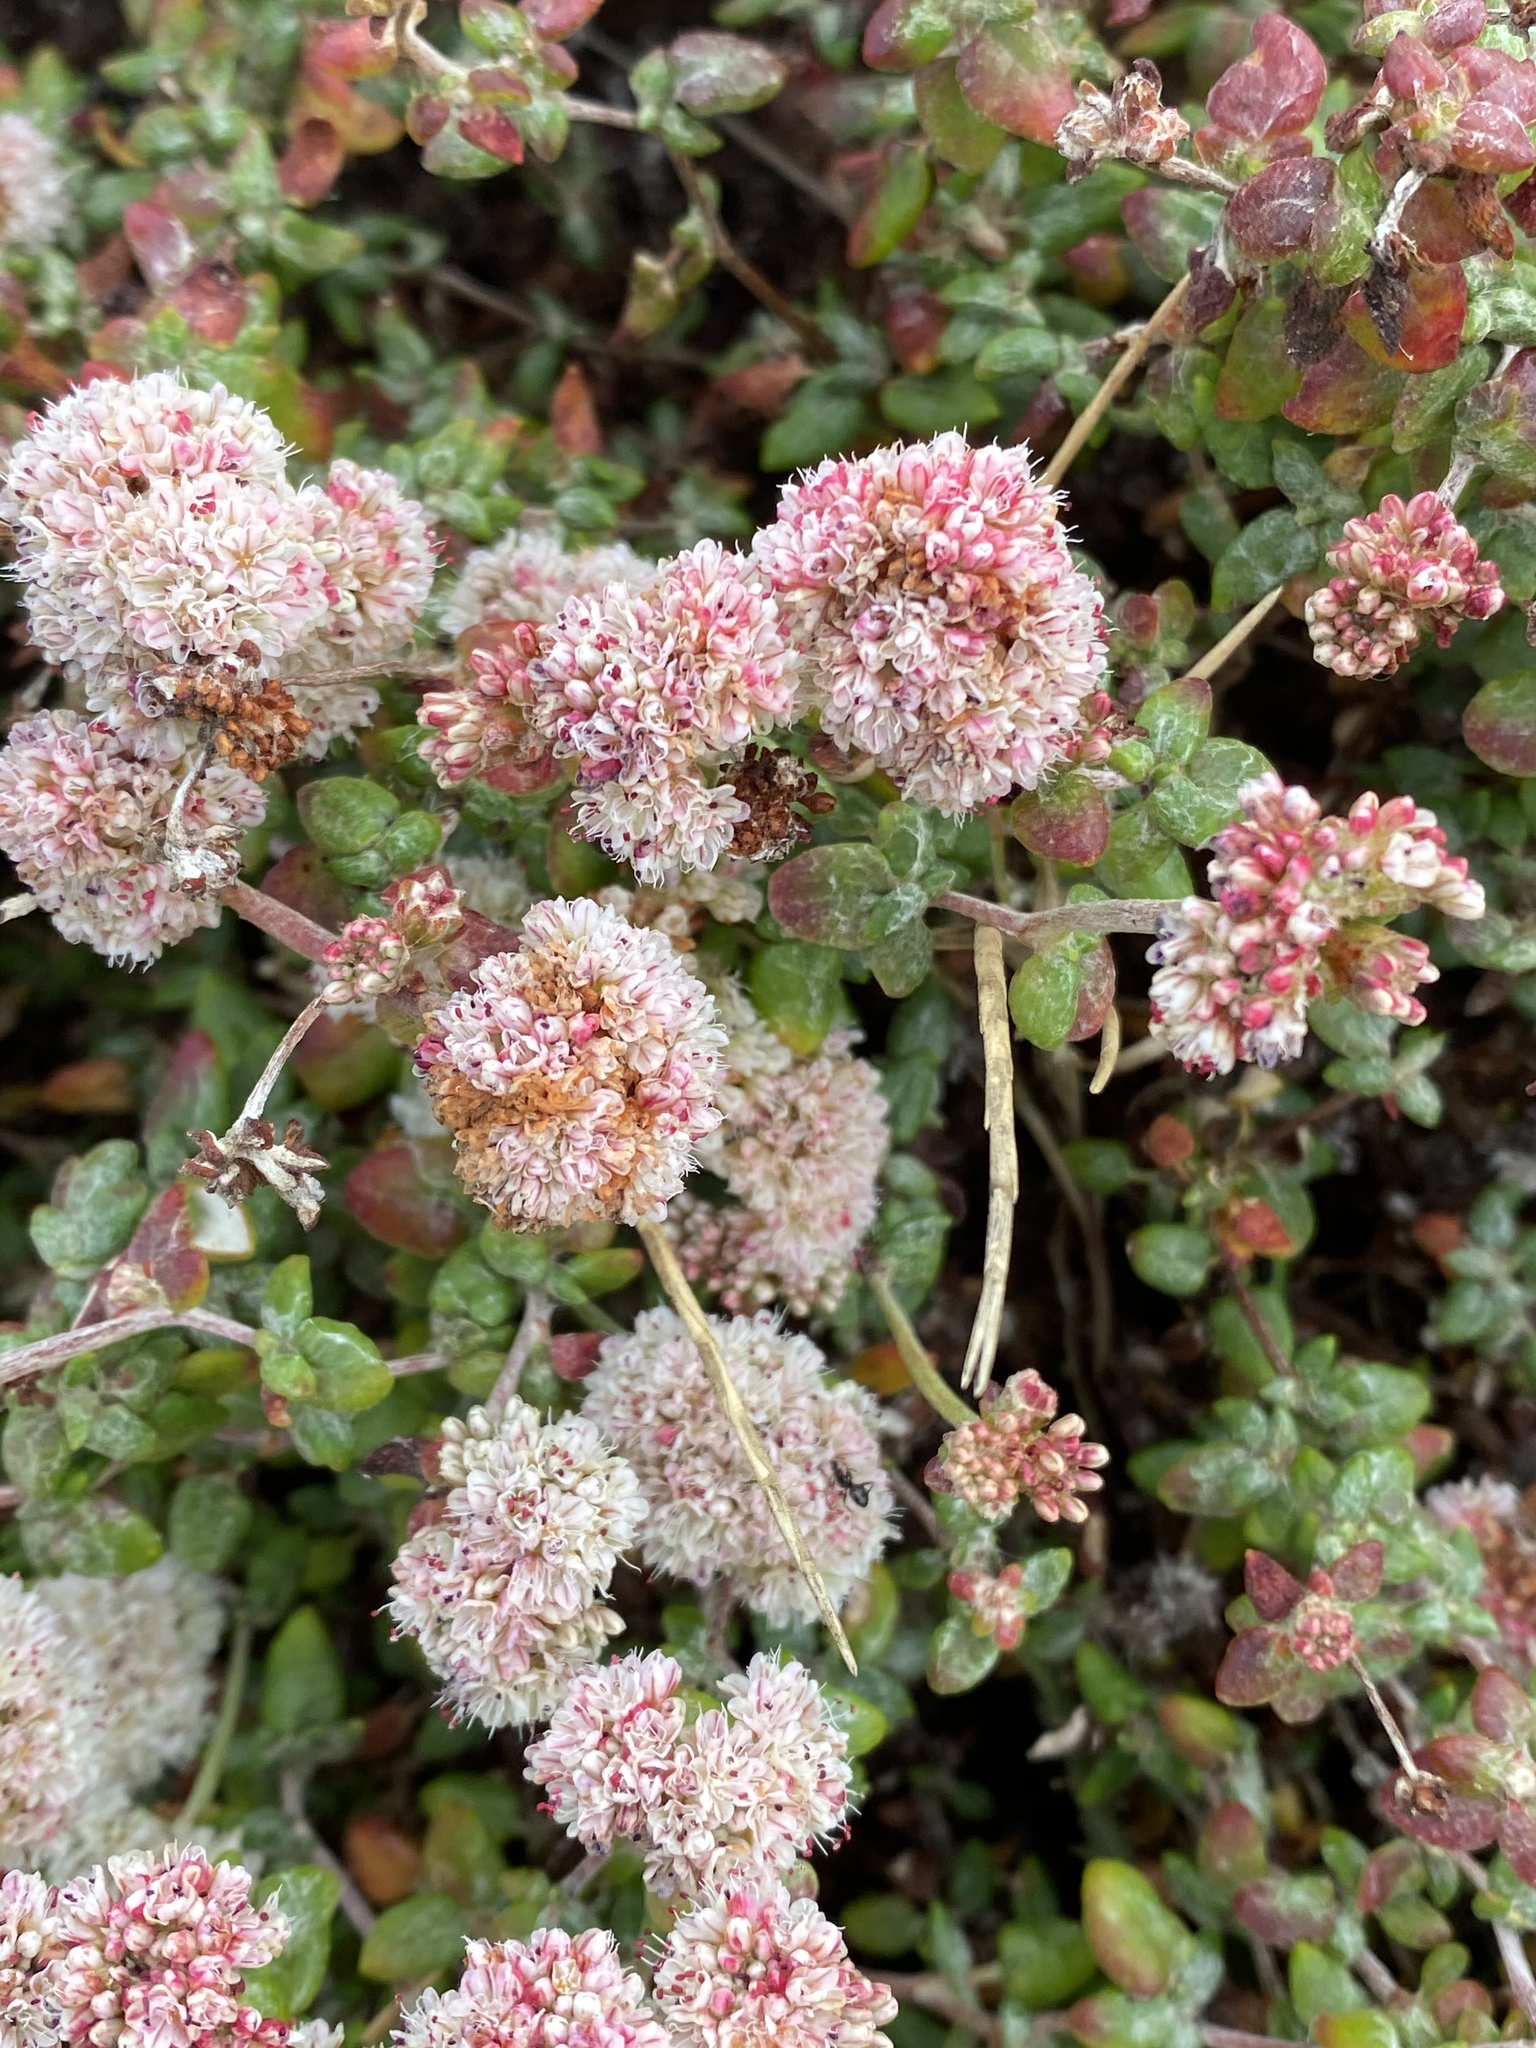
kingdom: Plantae
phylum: Tracheophyta
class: Magnoliopsida
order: Caryophyllales
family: Polygonaceae
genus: Eriogonum
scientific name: Eriogonum parvifolium
